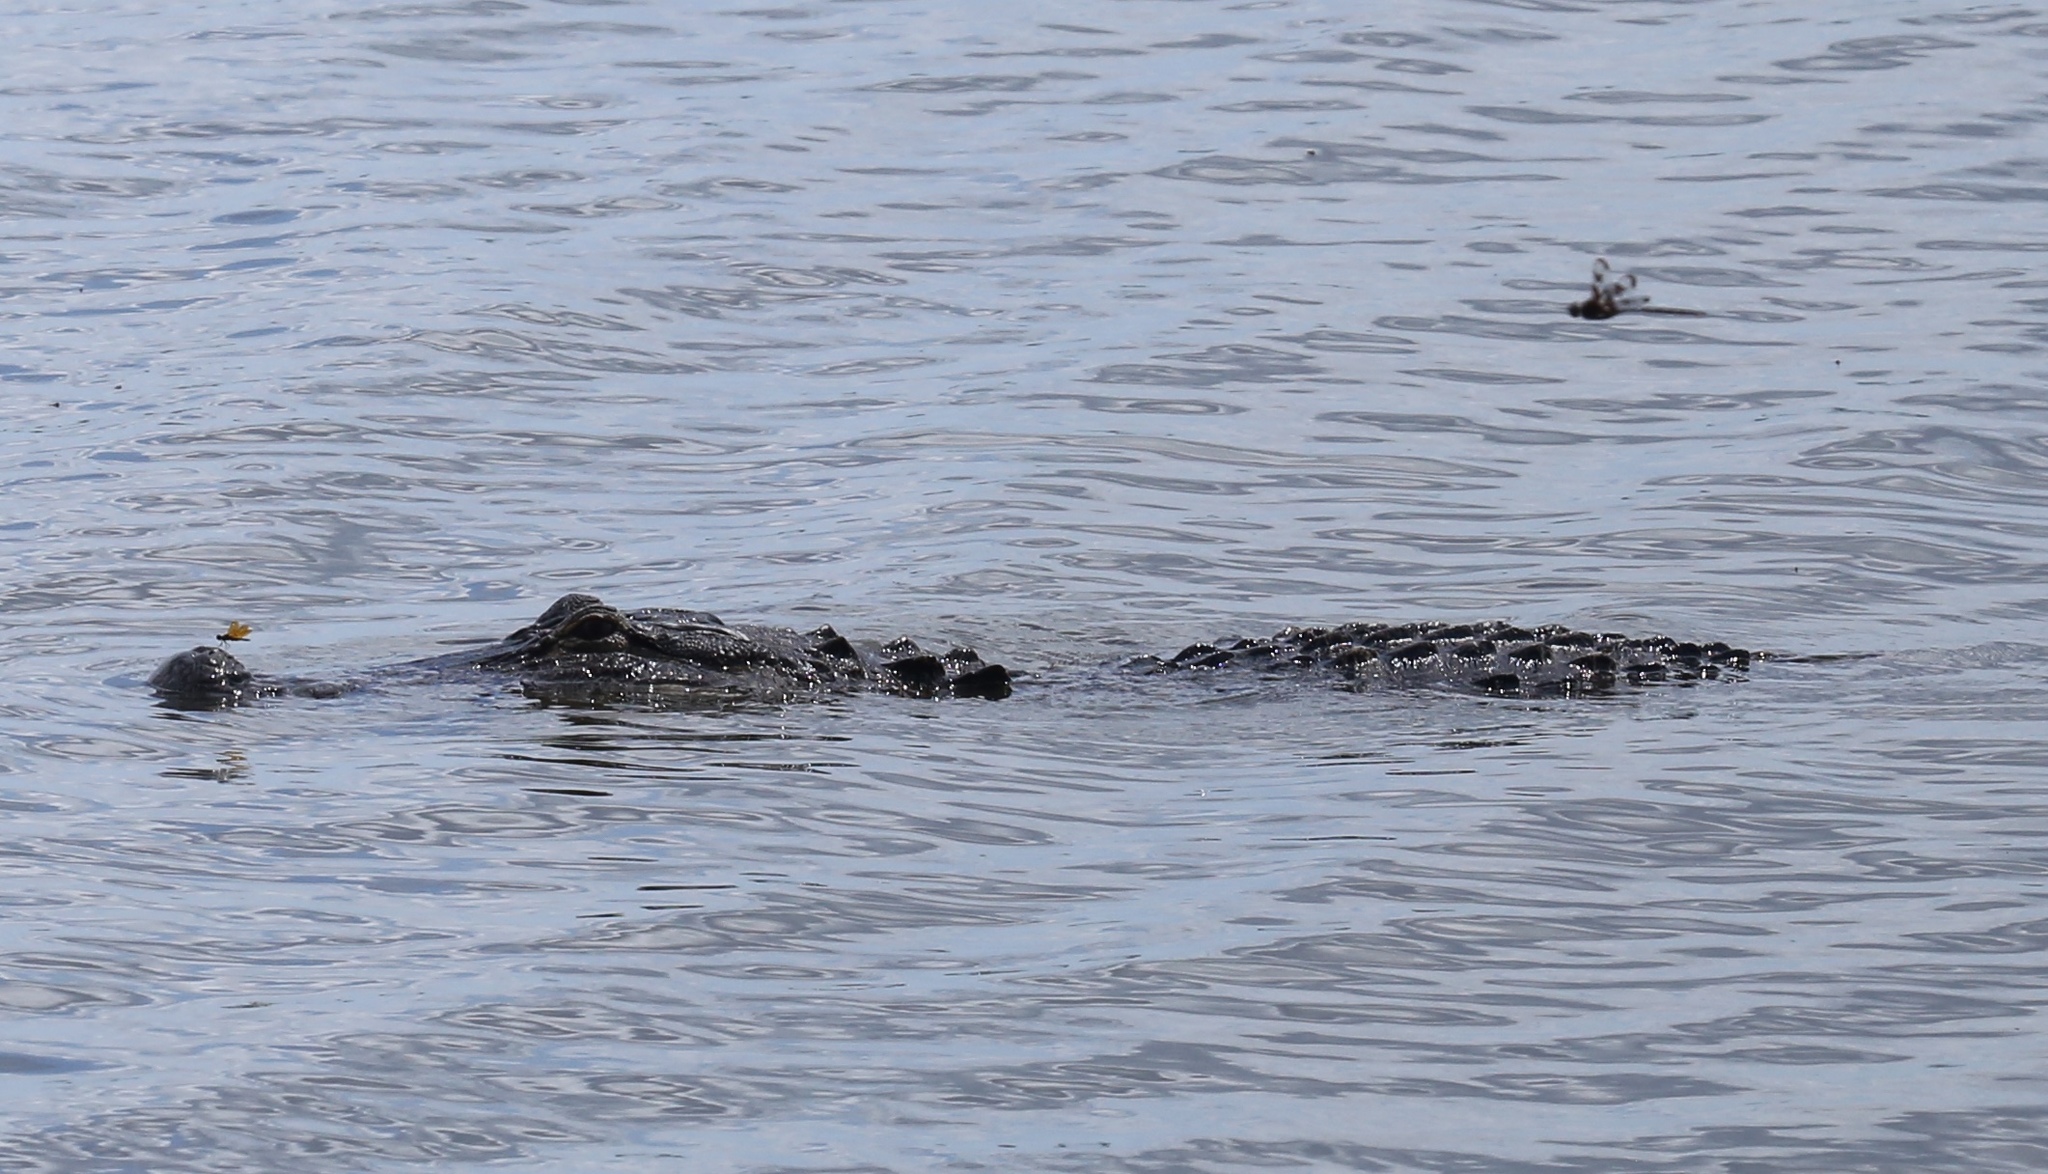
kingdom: Animalia
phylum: Chordata
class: Crocodylia
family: Alligatoridae
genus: Alligator
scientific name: Alligator mississippiensis
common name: American alligator
